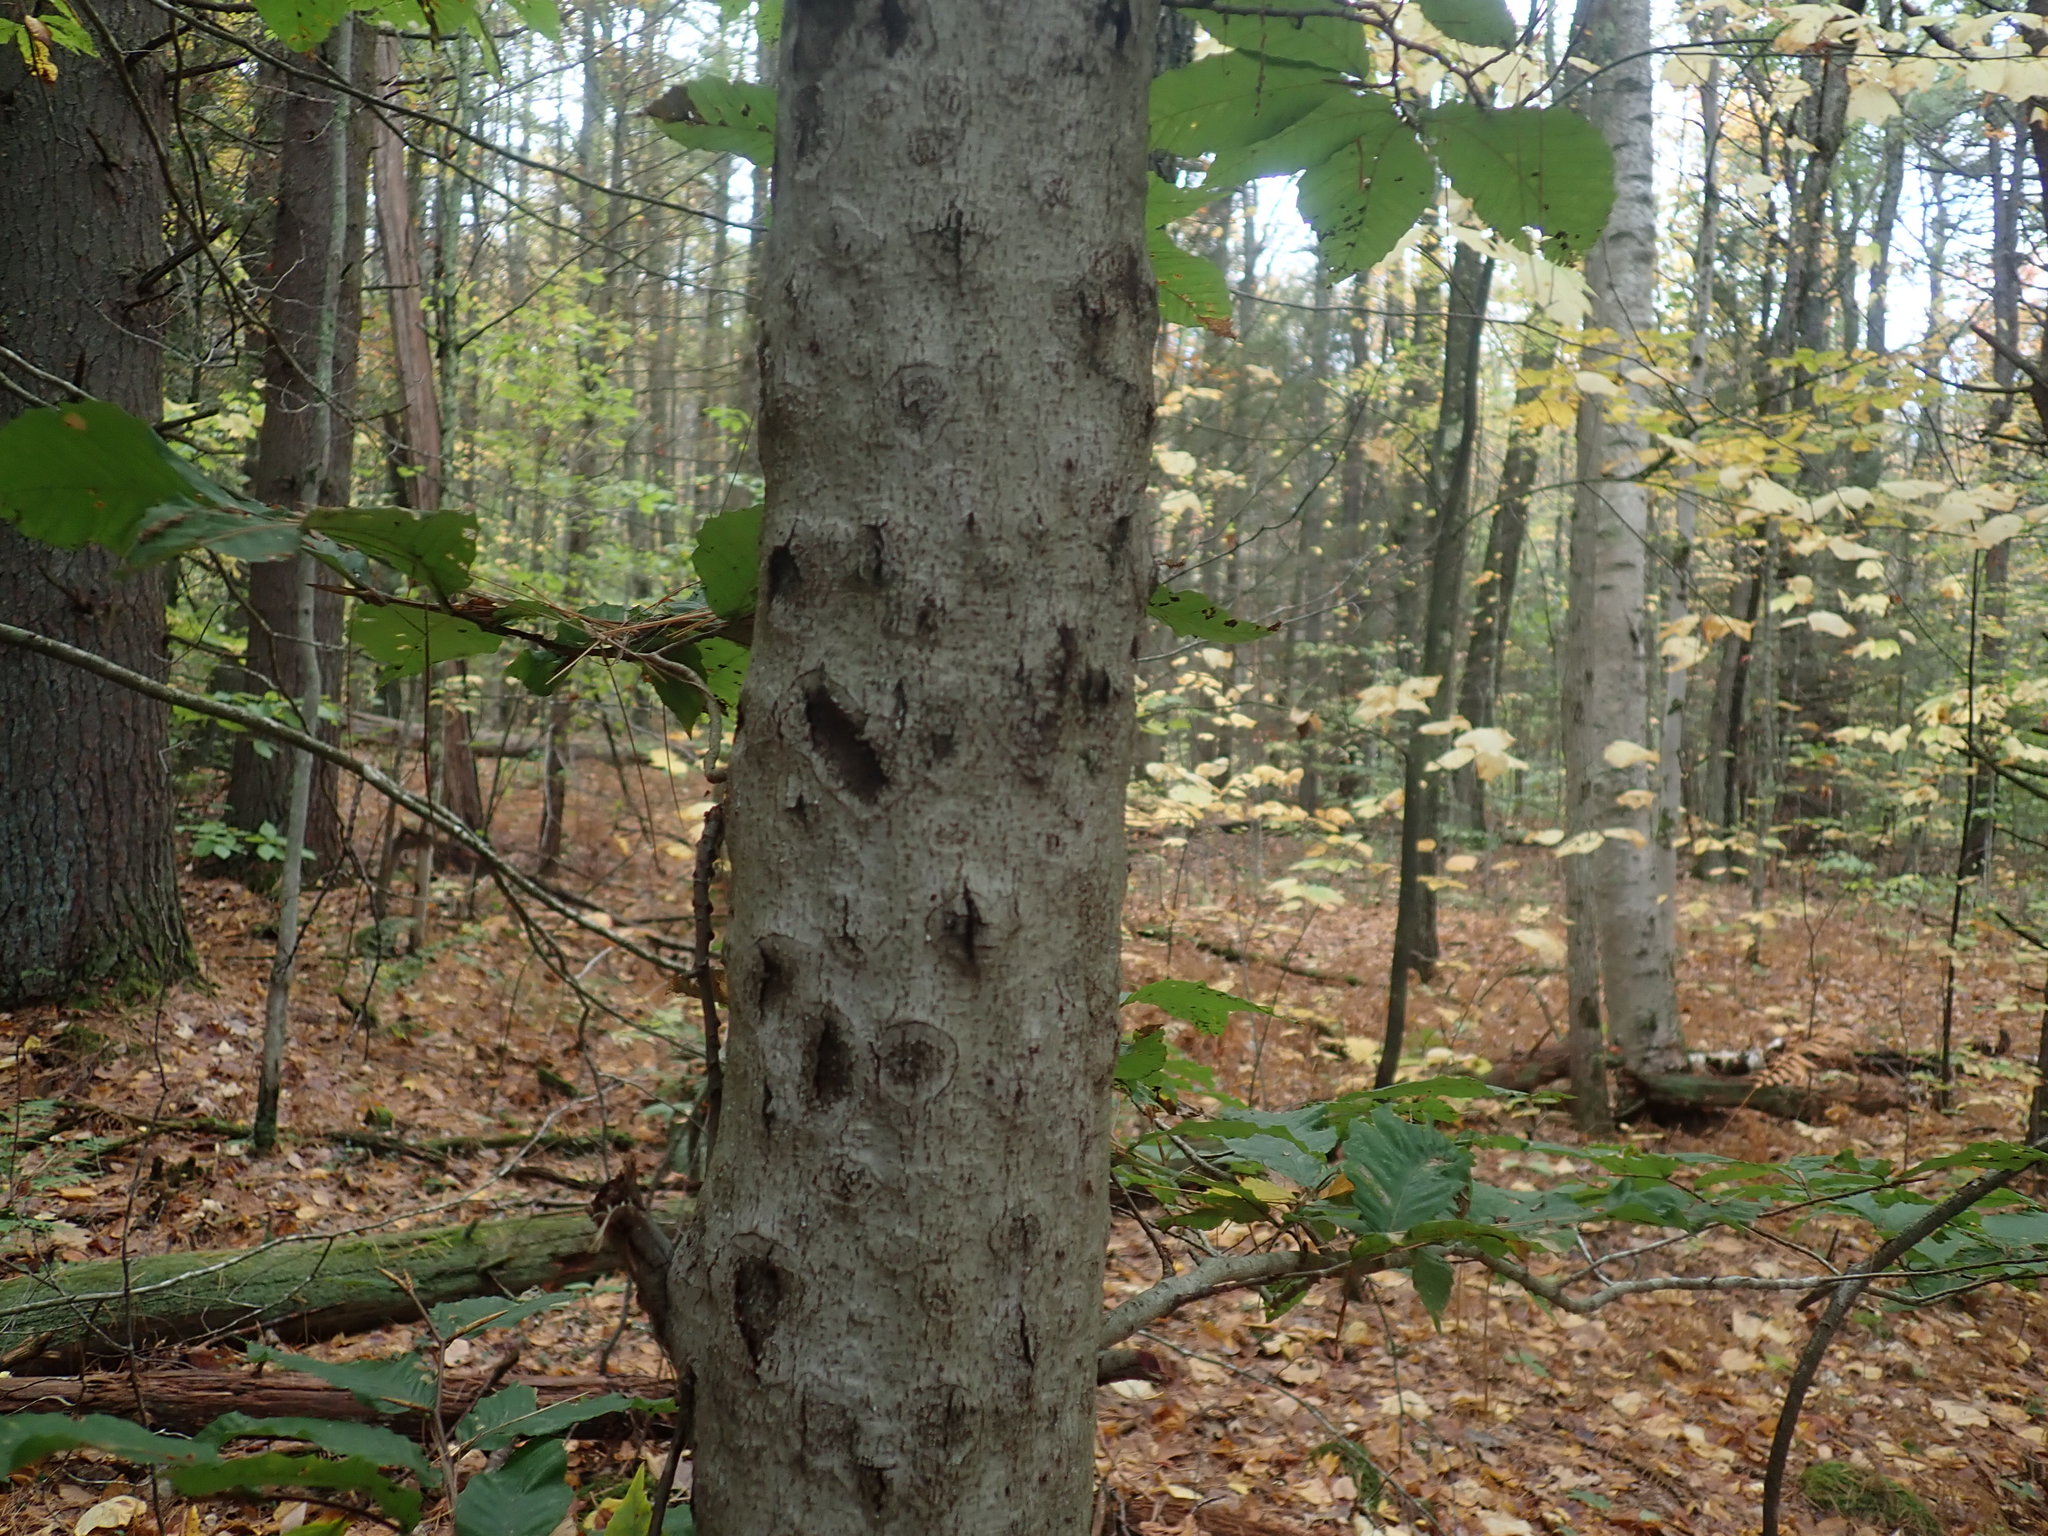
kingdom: Fungi
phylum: Ascomycota
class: Sordariomycetes
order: Hypocreales
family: Nectriaceae
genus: Neonectria
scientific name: Neonectria faginata
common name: Beech bark canker
